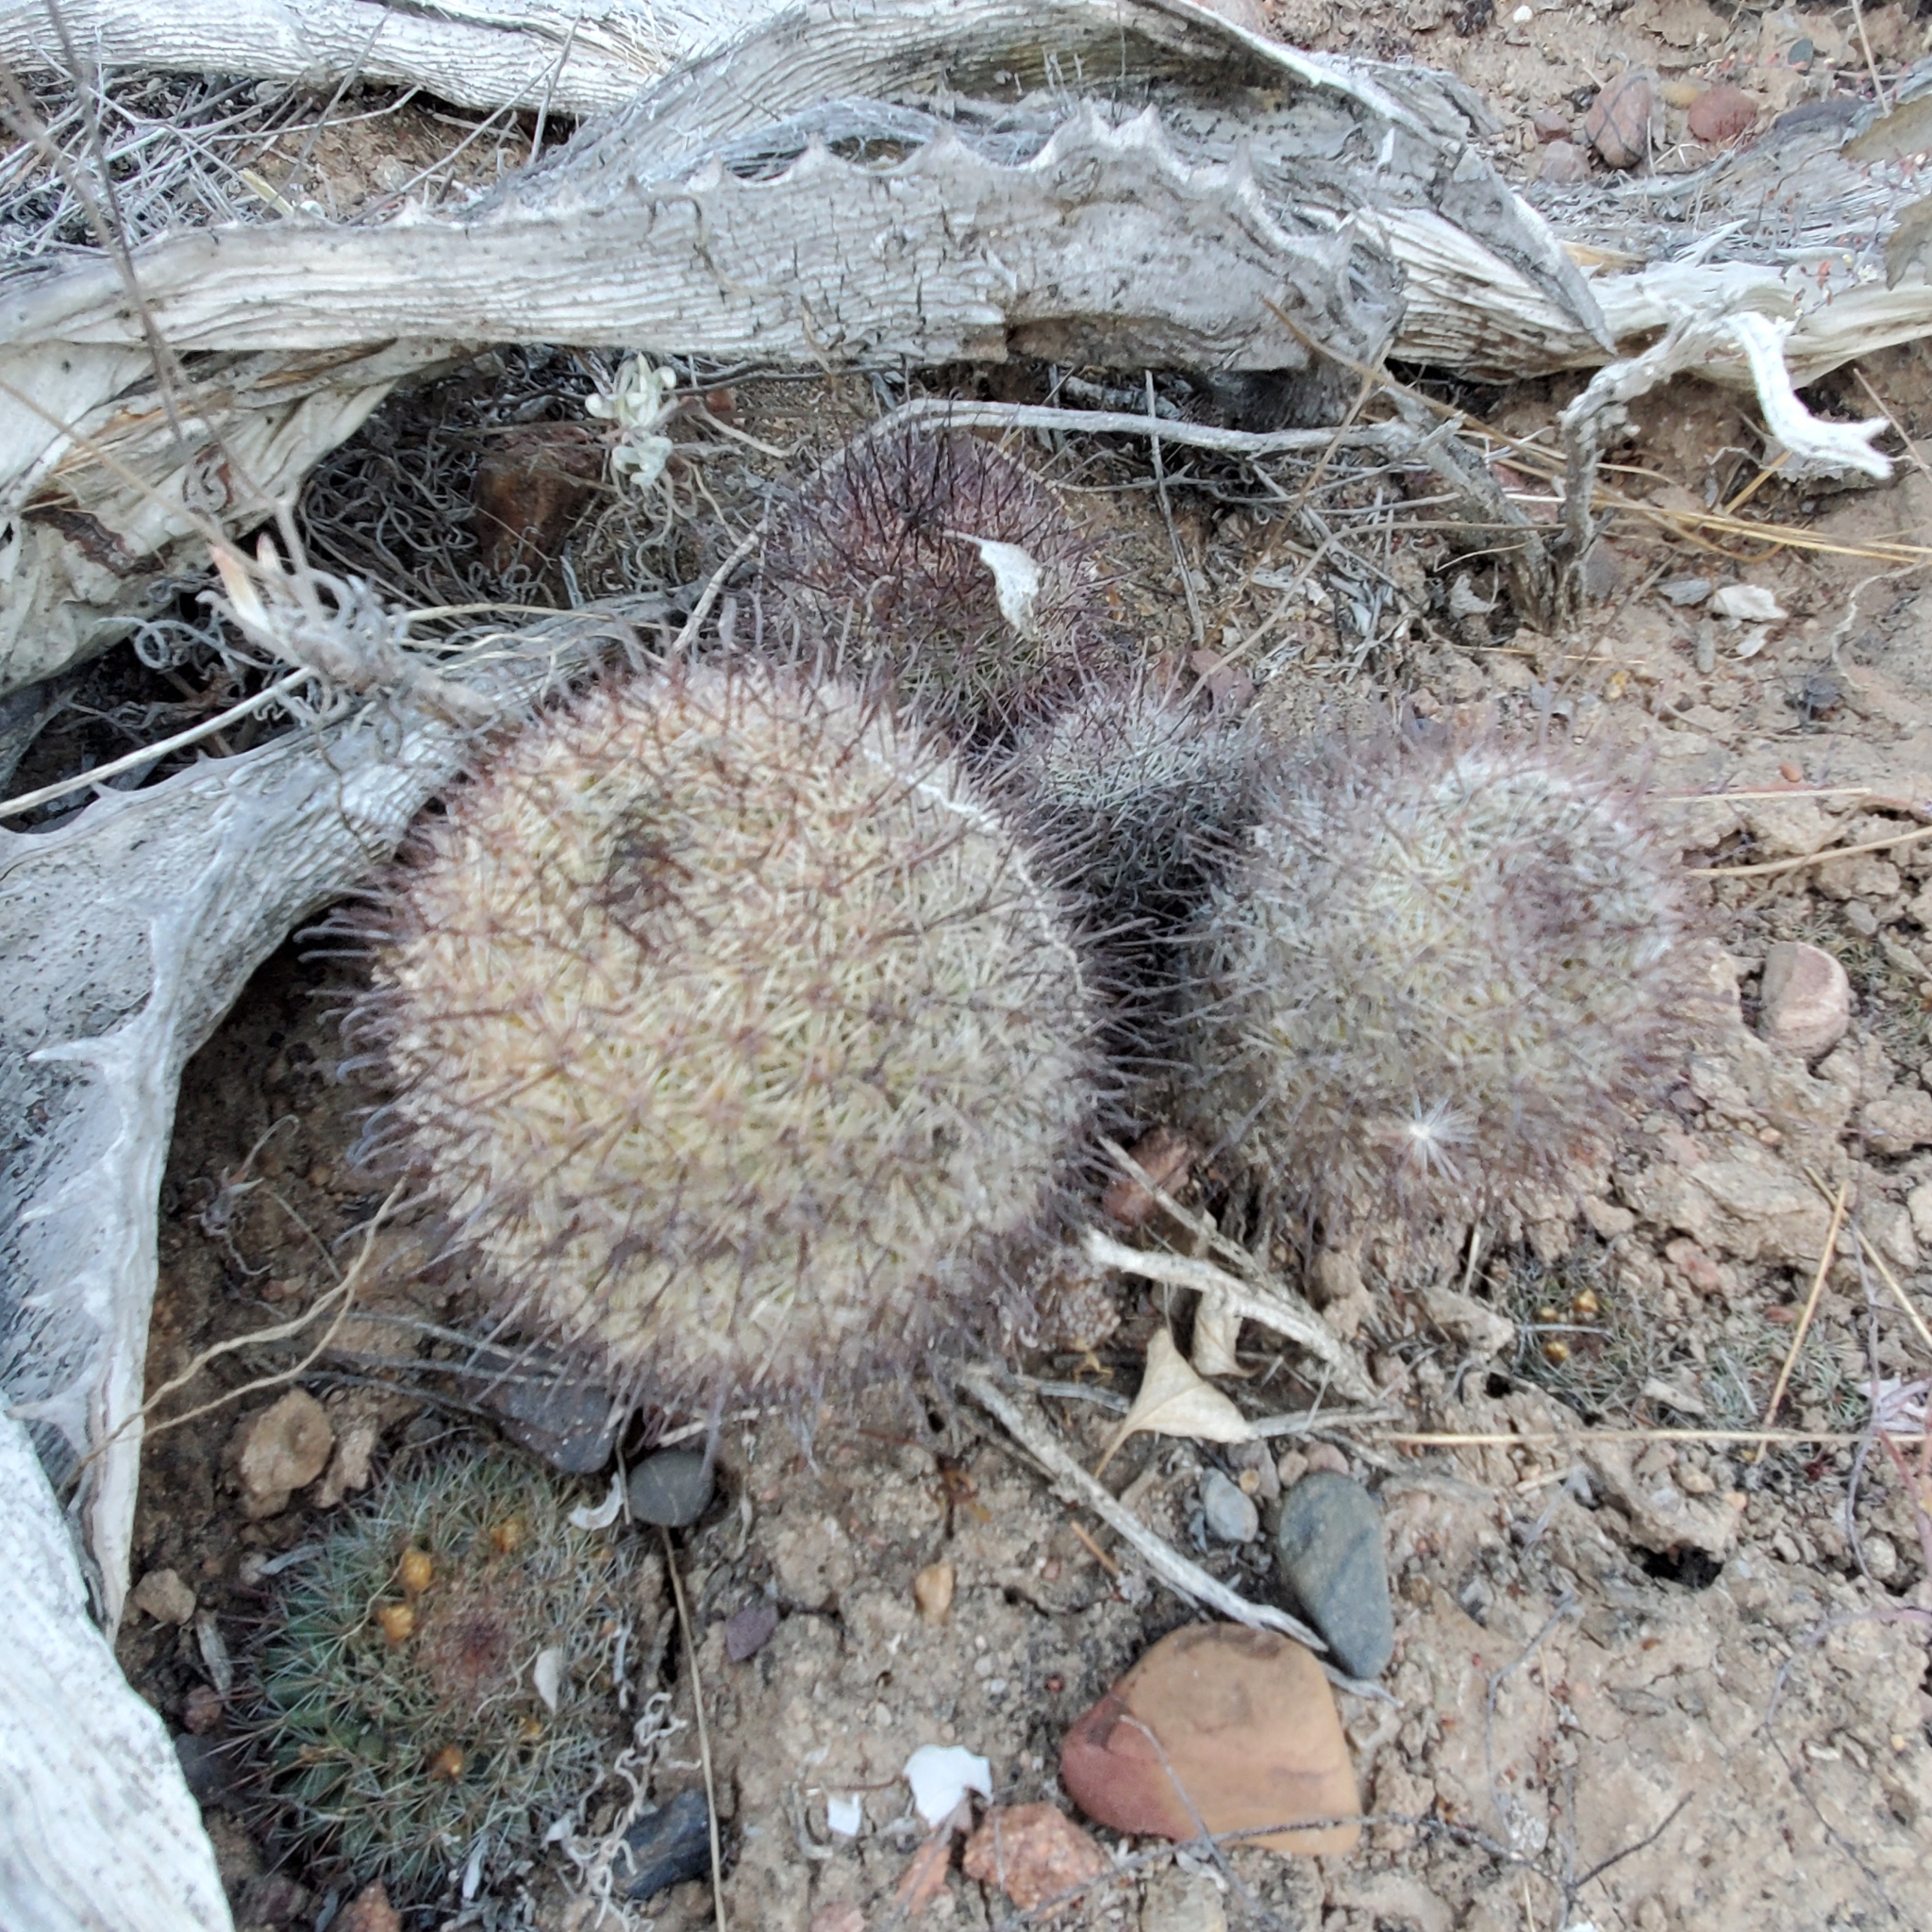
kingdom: Plantae
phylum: Tracheophyta
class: Magnoliopsida
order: Caryophyllales
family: Cactaceae
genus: Cochemiea
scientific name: Cochemiea dioica
